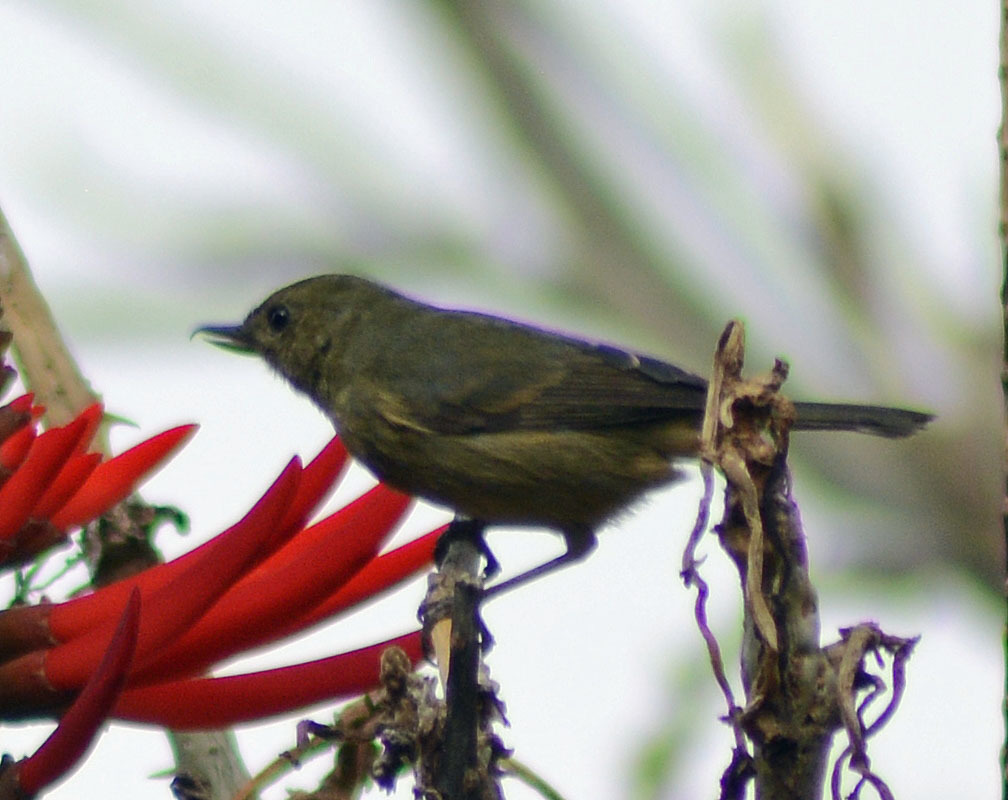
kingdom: Animalia
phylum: Chordata
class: Aves
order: Passeriformes
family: Thraupidae
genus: Diglossa
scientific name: Diglossa baritula
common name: Cinnamon-bellied flowerpiercer
